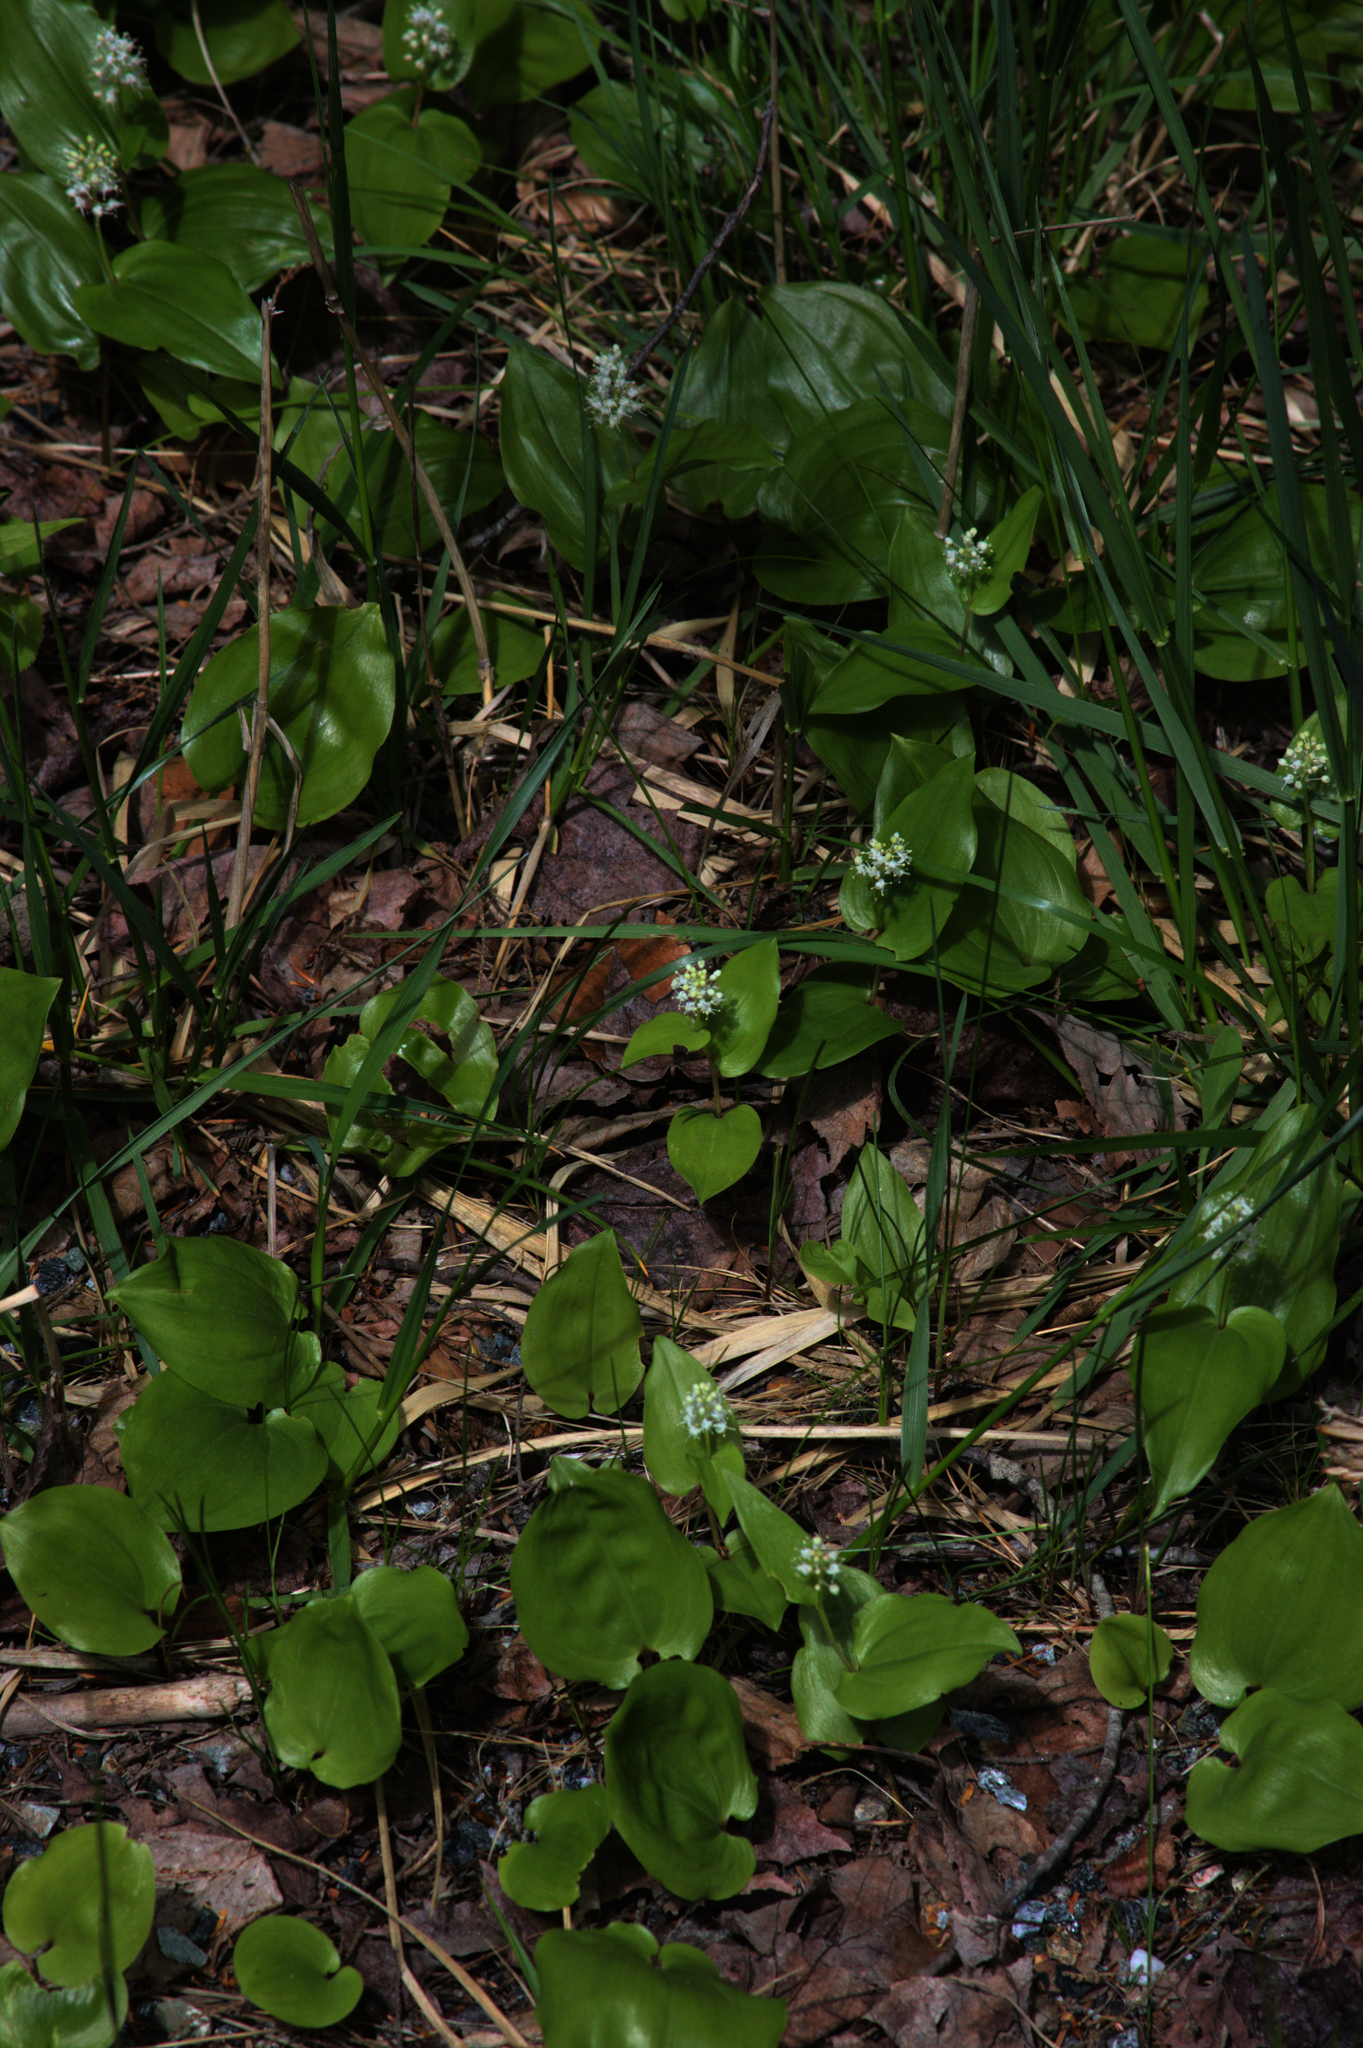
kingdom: Plantae
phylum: Tracheophyta
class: Liliopsida
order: Asparagales
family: Asparagaceae
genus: Maianthemum
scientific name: Maianthemum canadense
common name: False lily-of-the-valley
